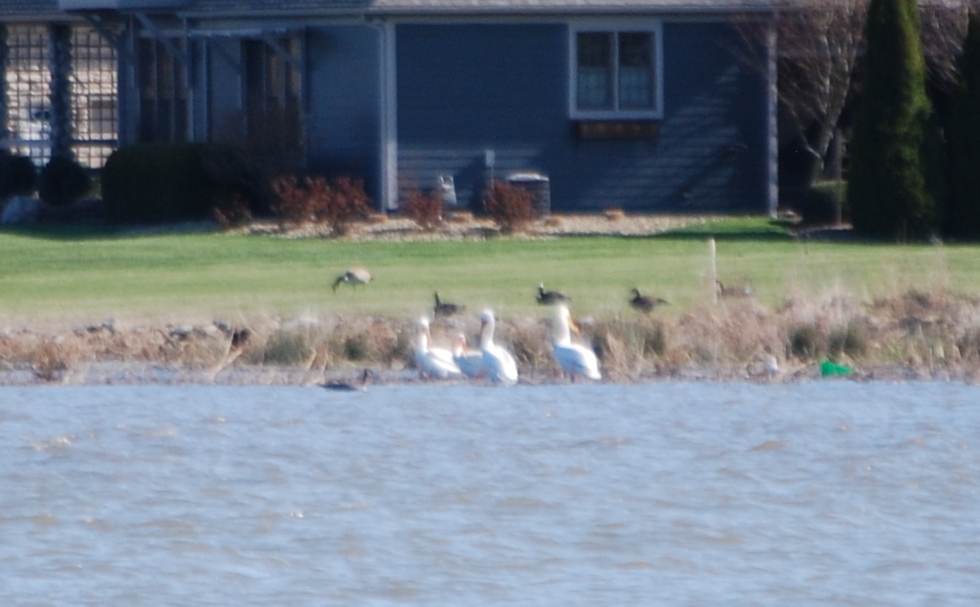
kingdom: Animalia
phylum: Chordata
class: Aves
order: Pelecaniformes
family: Pelecanidae
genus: Pelecanus
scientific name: Pelecanus erythrorhynchos
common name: American white pelican
